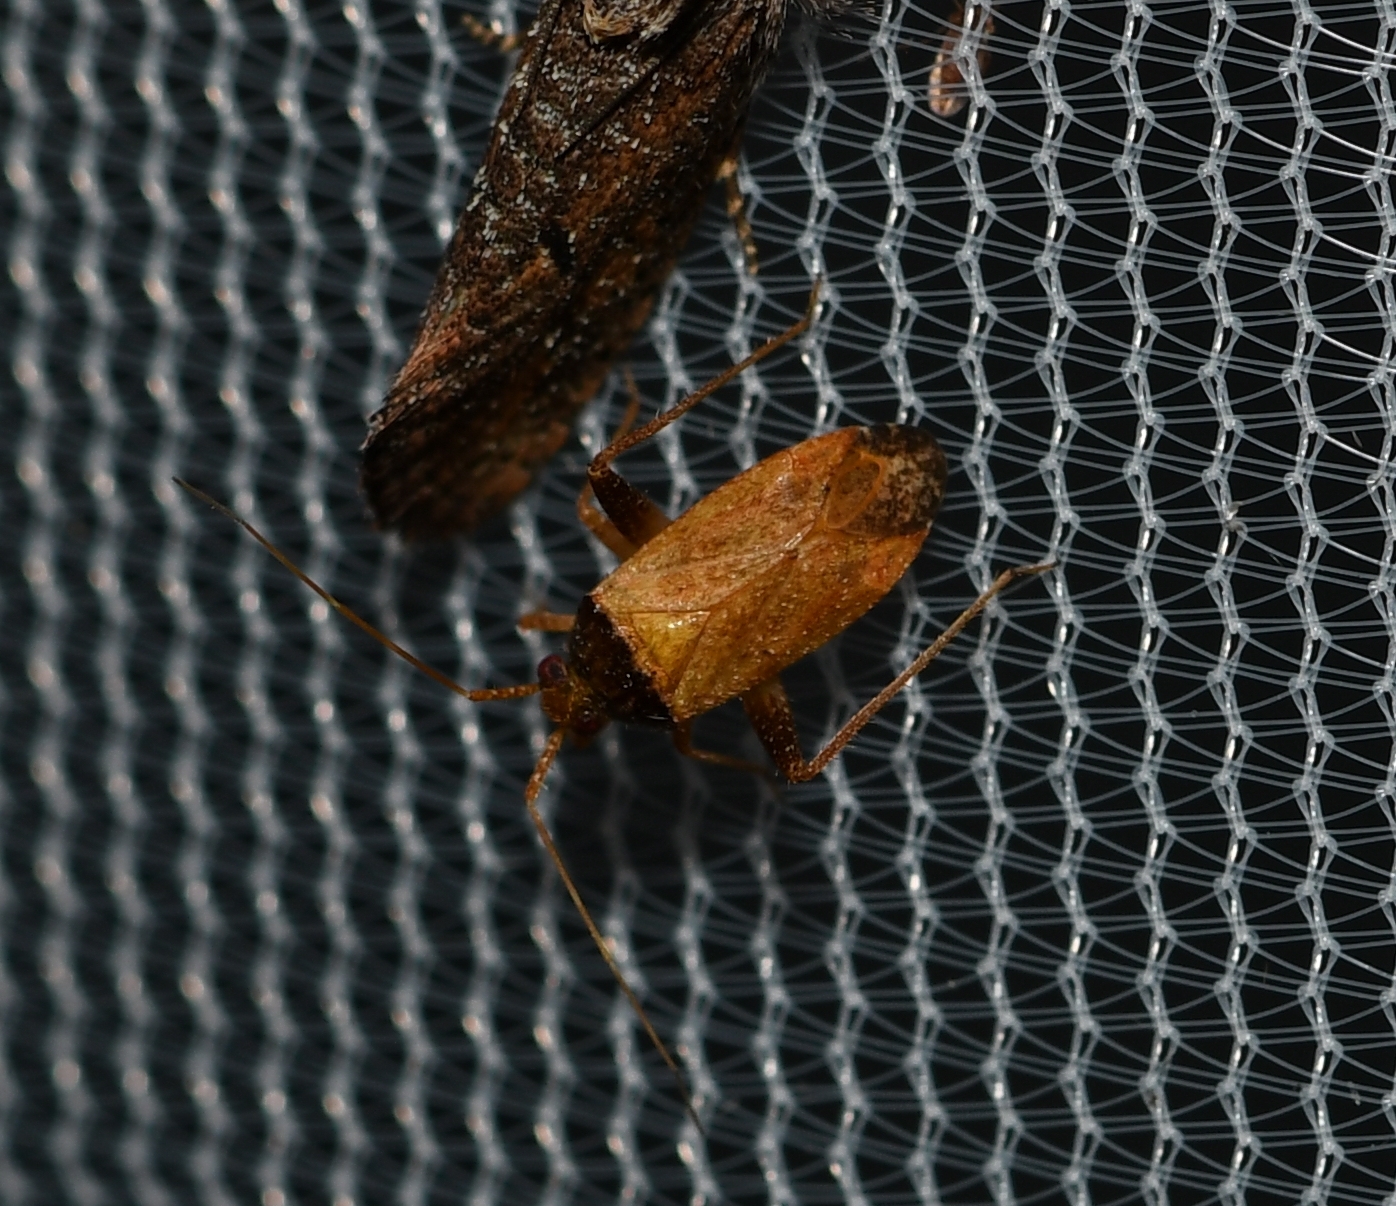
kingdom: Animalia
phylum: Arthropoda
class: Insecta
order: Hemiptera
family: Miridae
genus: Phytocoris
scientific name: Phytocoris ramosus
